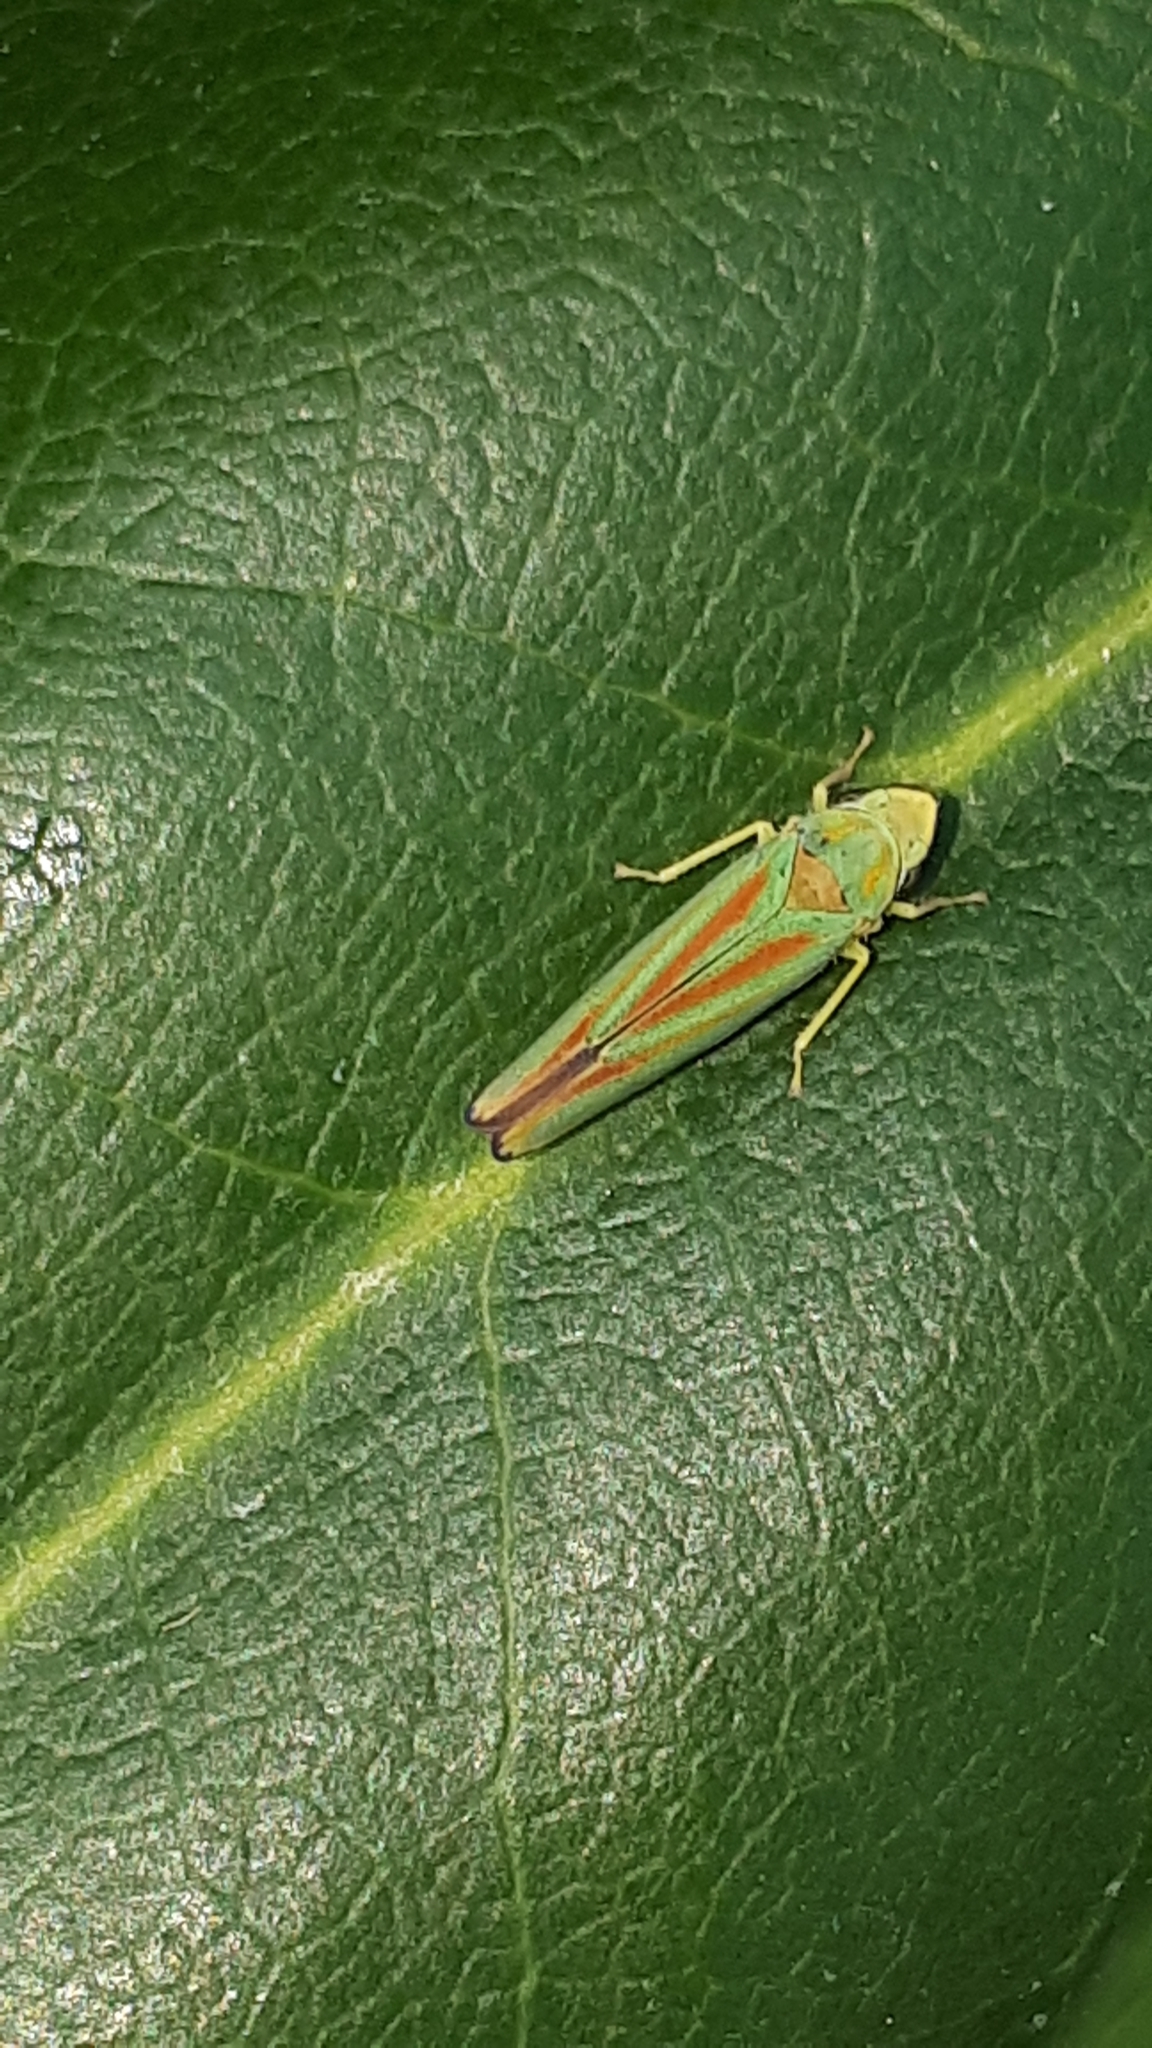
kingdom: Animalia
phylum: Arthropoda
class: Insecta
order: Hemiptera
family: Cicadellidae
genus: Graphocephala
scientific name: Graphocephala fennahi
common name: Rhododendron leafhopper
